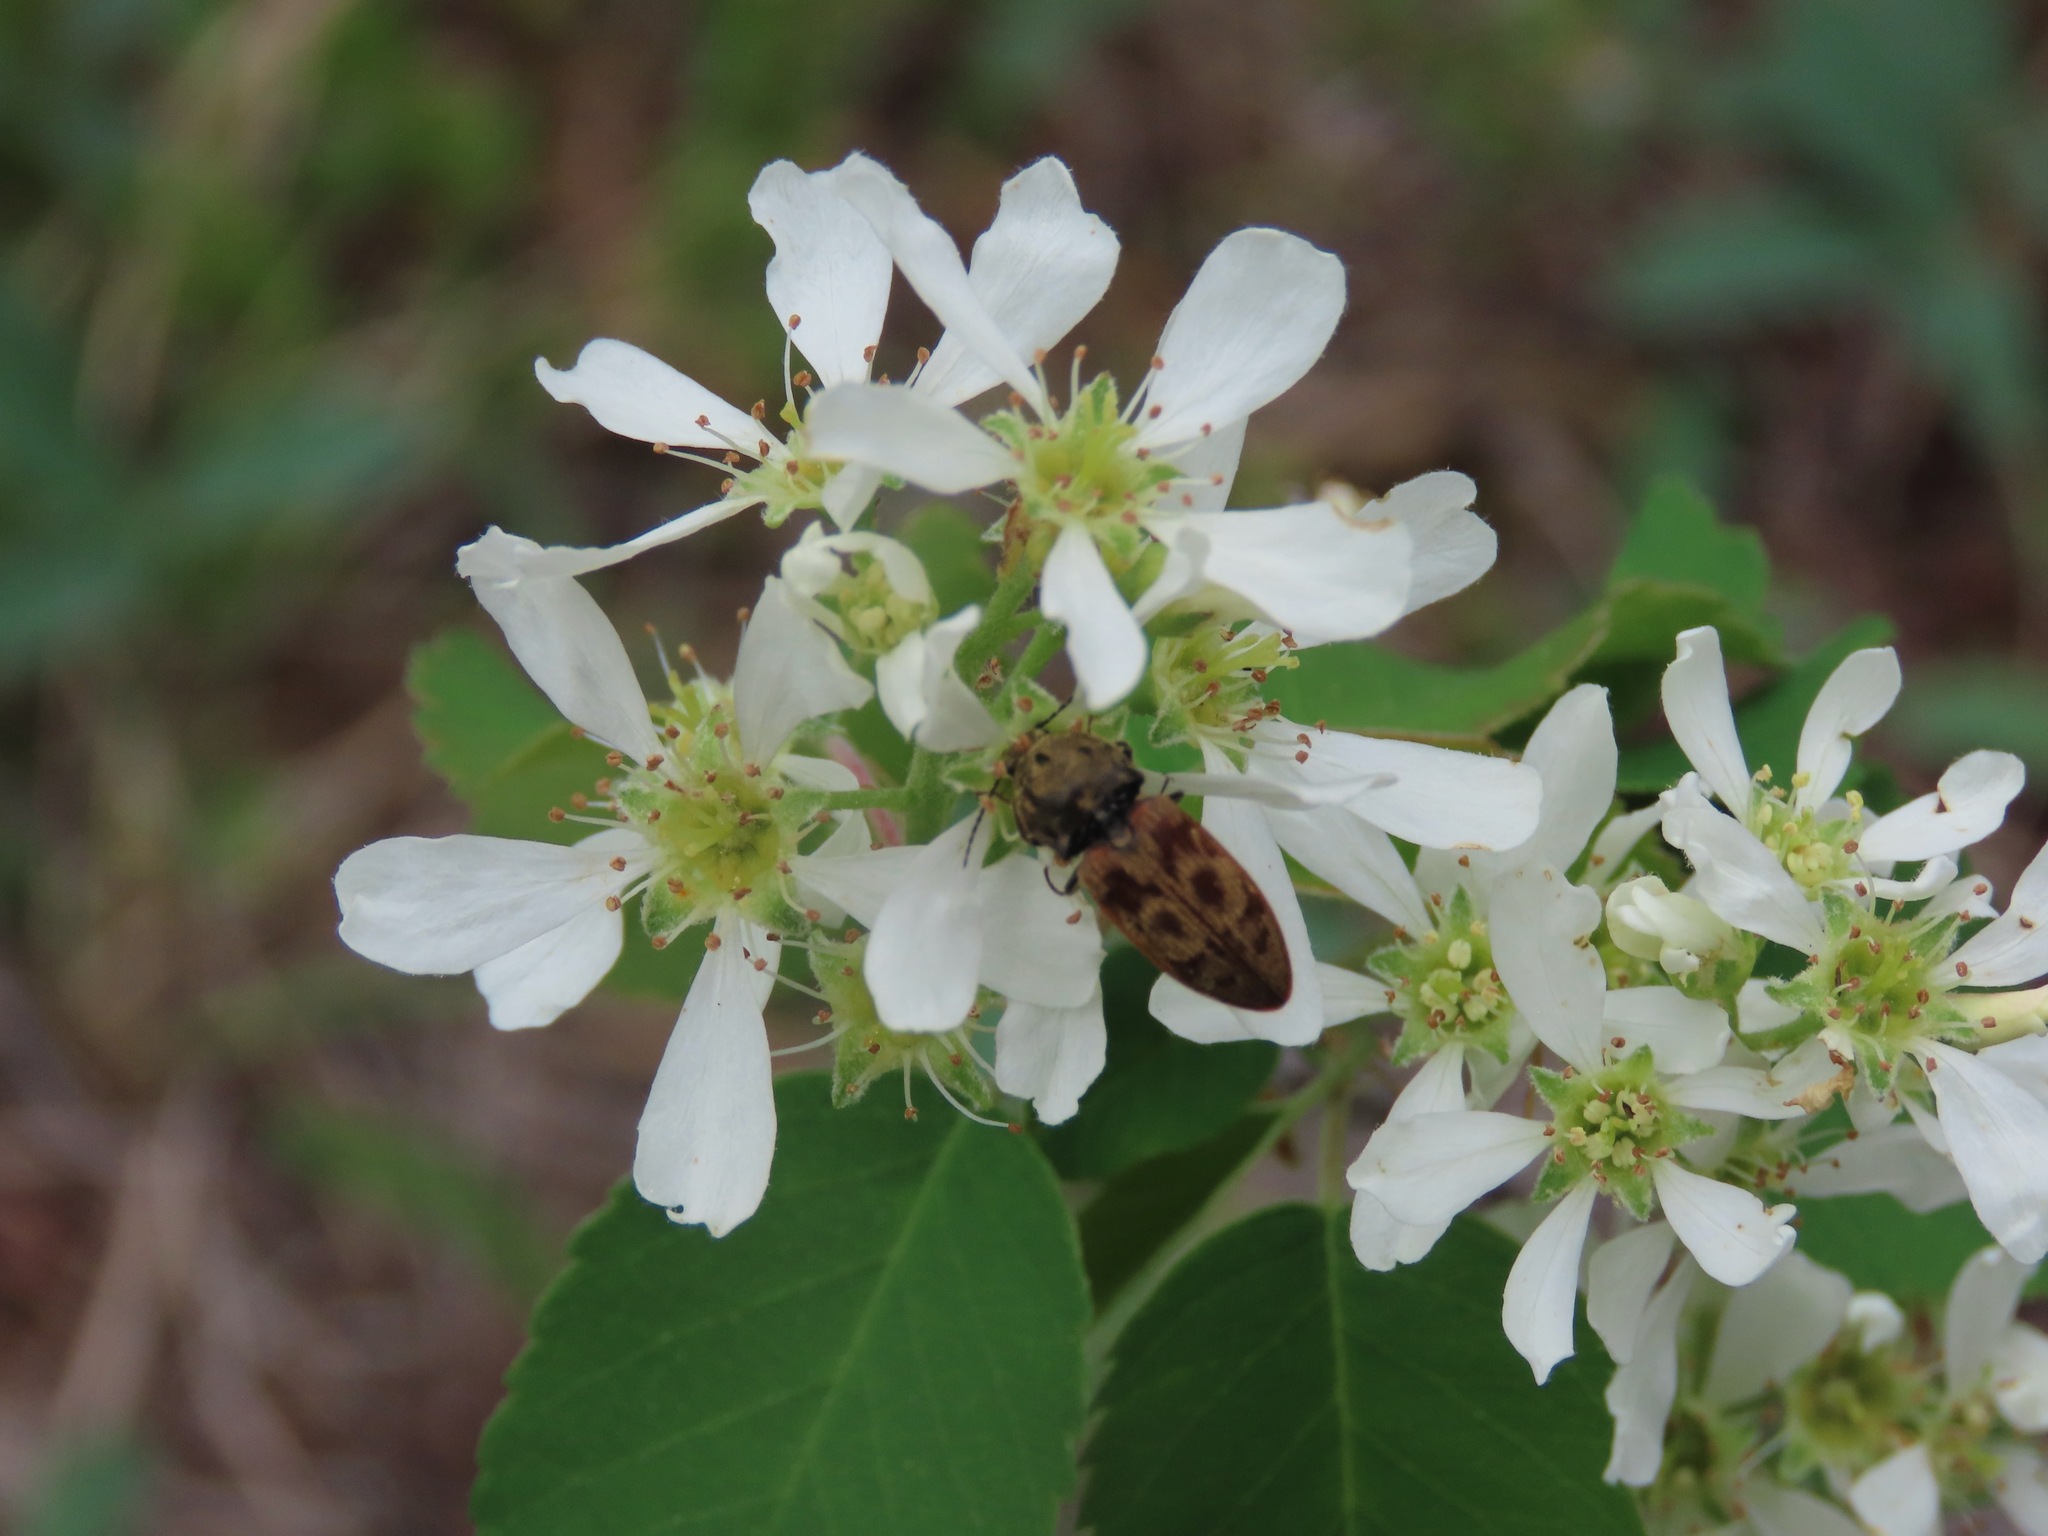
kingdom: Animalia
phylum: Arthropoda
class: Insecta
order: Coleoptera
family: Elateridae
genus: Prosternon
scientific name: Prosternon bombycinum
